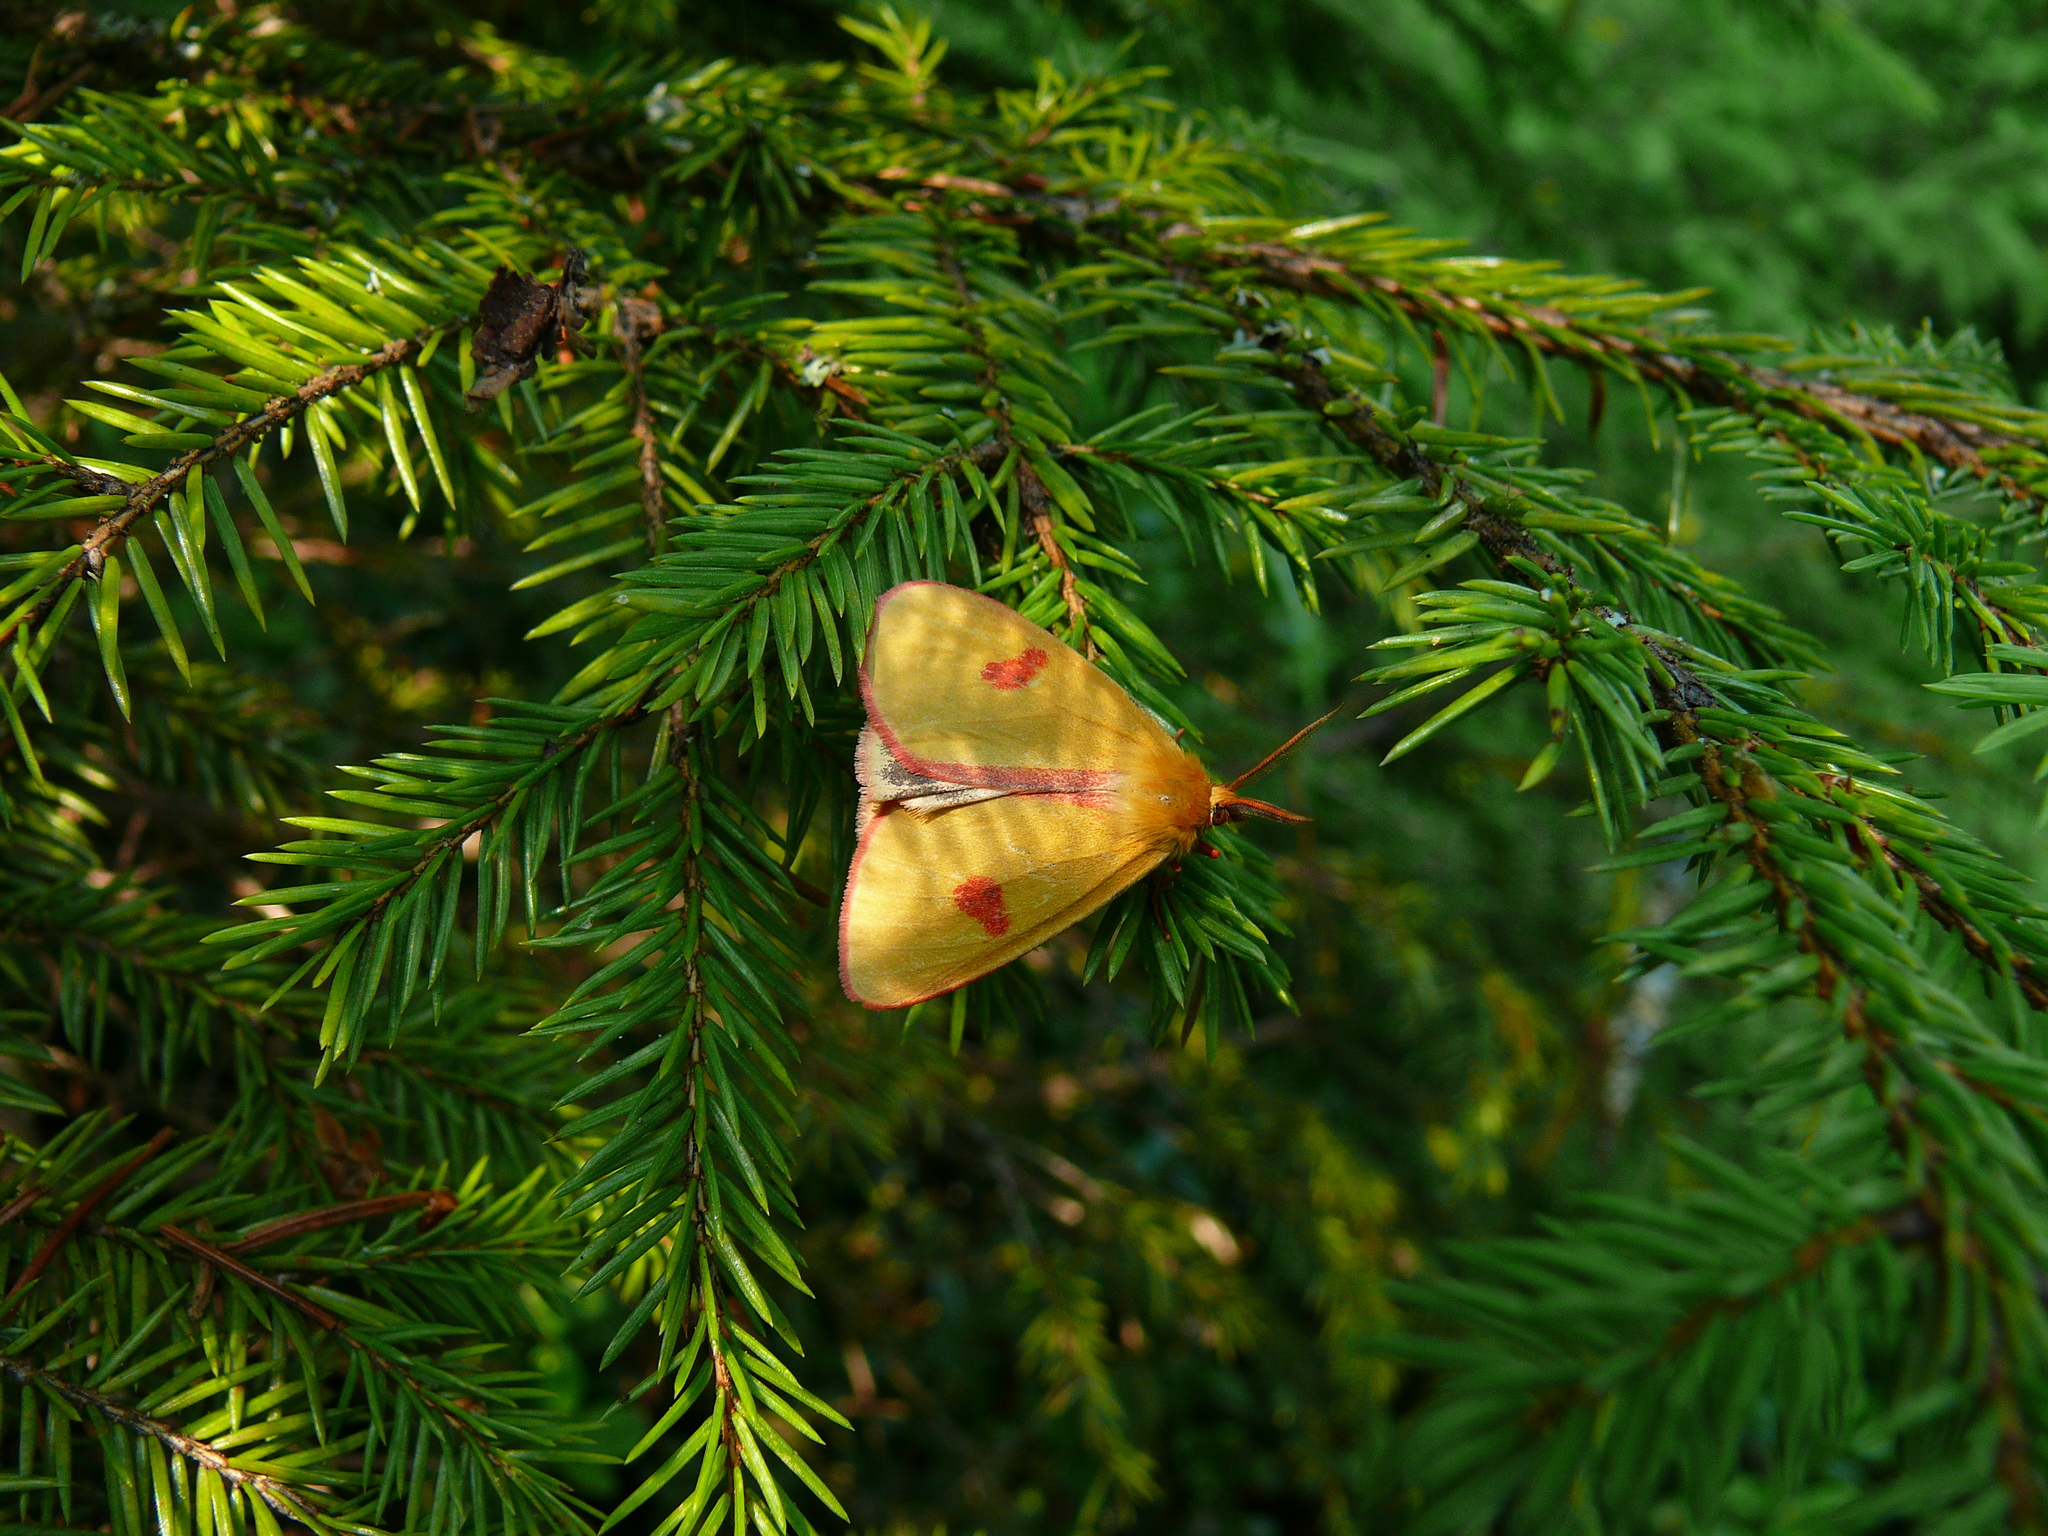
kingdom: Animalia
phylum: Arthropoda
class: Insecta
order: Lepidoptera
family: Erebidae
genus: Diacrisia
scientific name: Diacrisia sannio
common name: Clouded buff
